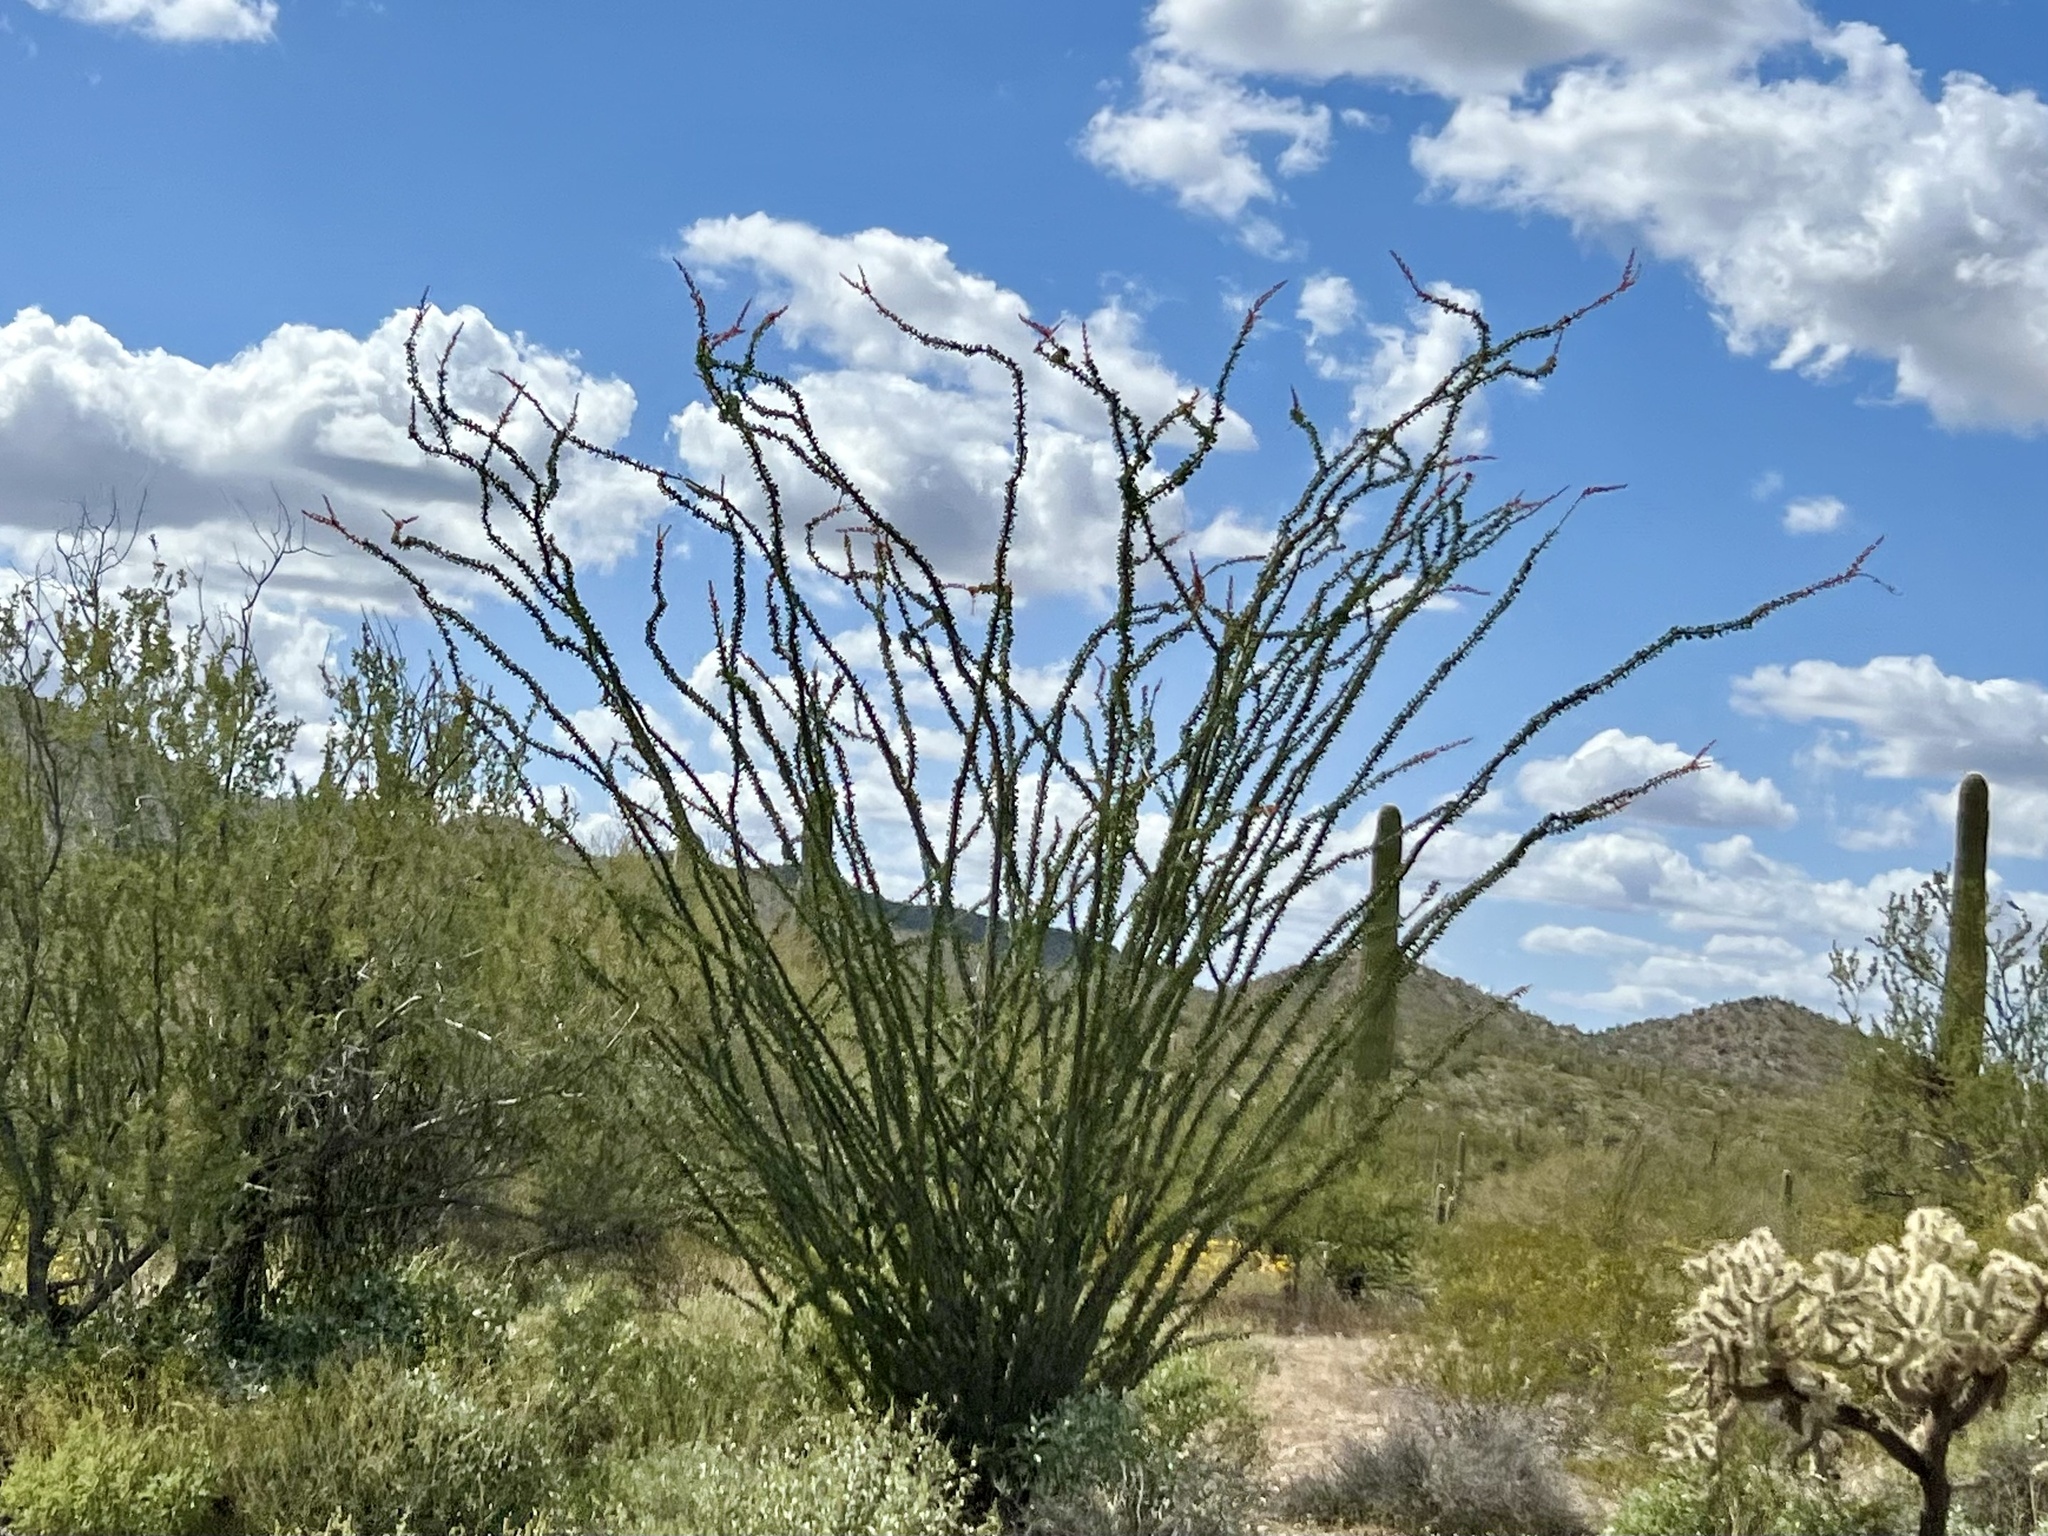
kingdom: Plantae
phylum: Tracheophyta
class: Magnoliopsida
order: Ericales
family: Fouquieriaceae
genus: Fouquieria
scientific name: Fouquieria splendens
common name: Vine-cactus
